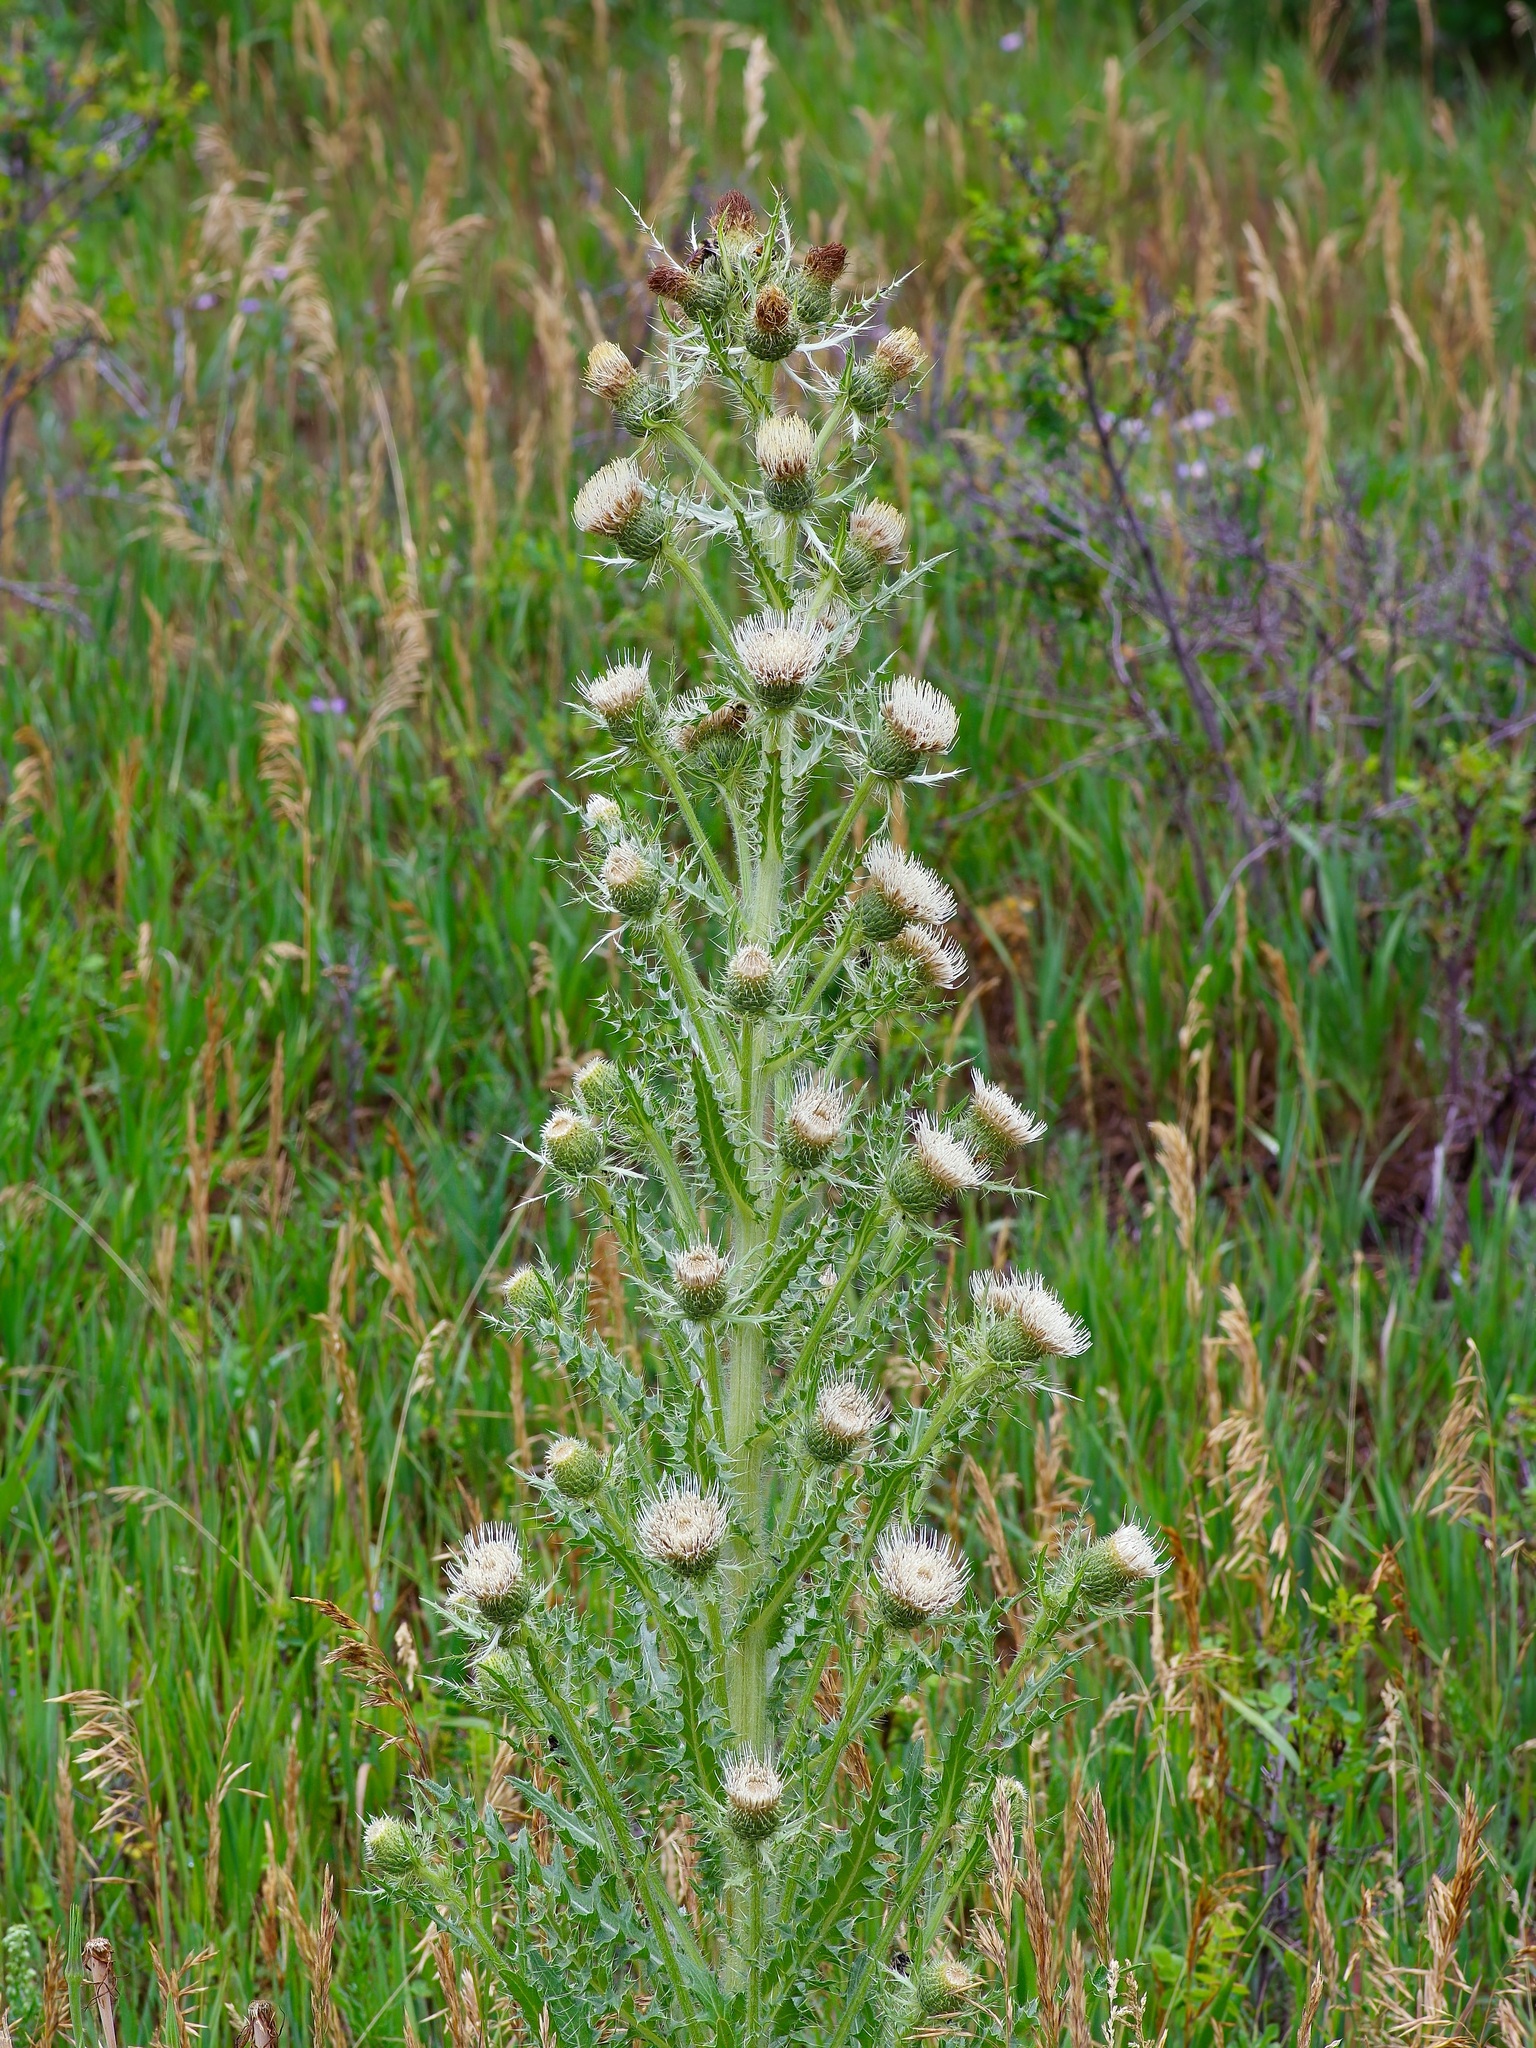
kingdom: Plantae
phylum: Tracheophyta
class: Magnoliopsida
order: Asterales
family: Asteraceae
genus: Cirsium
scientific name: Cirsium scariosum
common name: Meadow thistle
